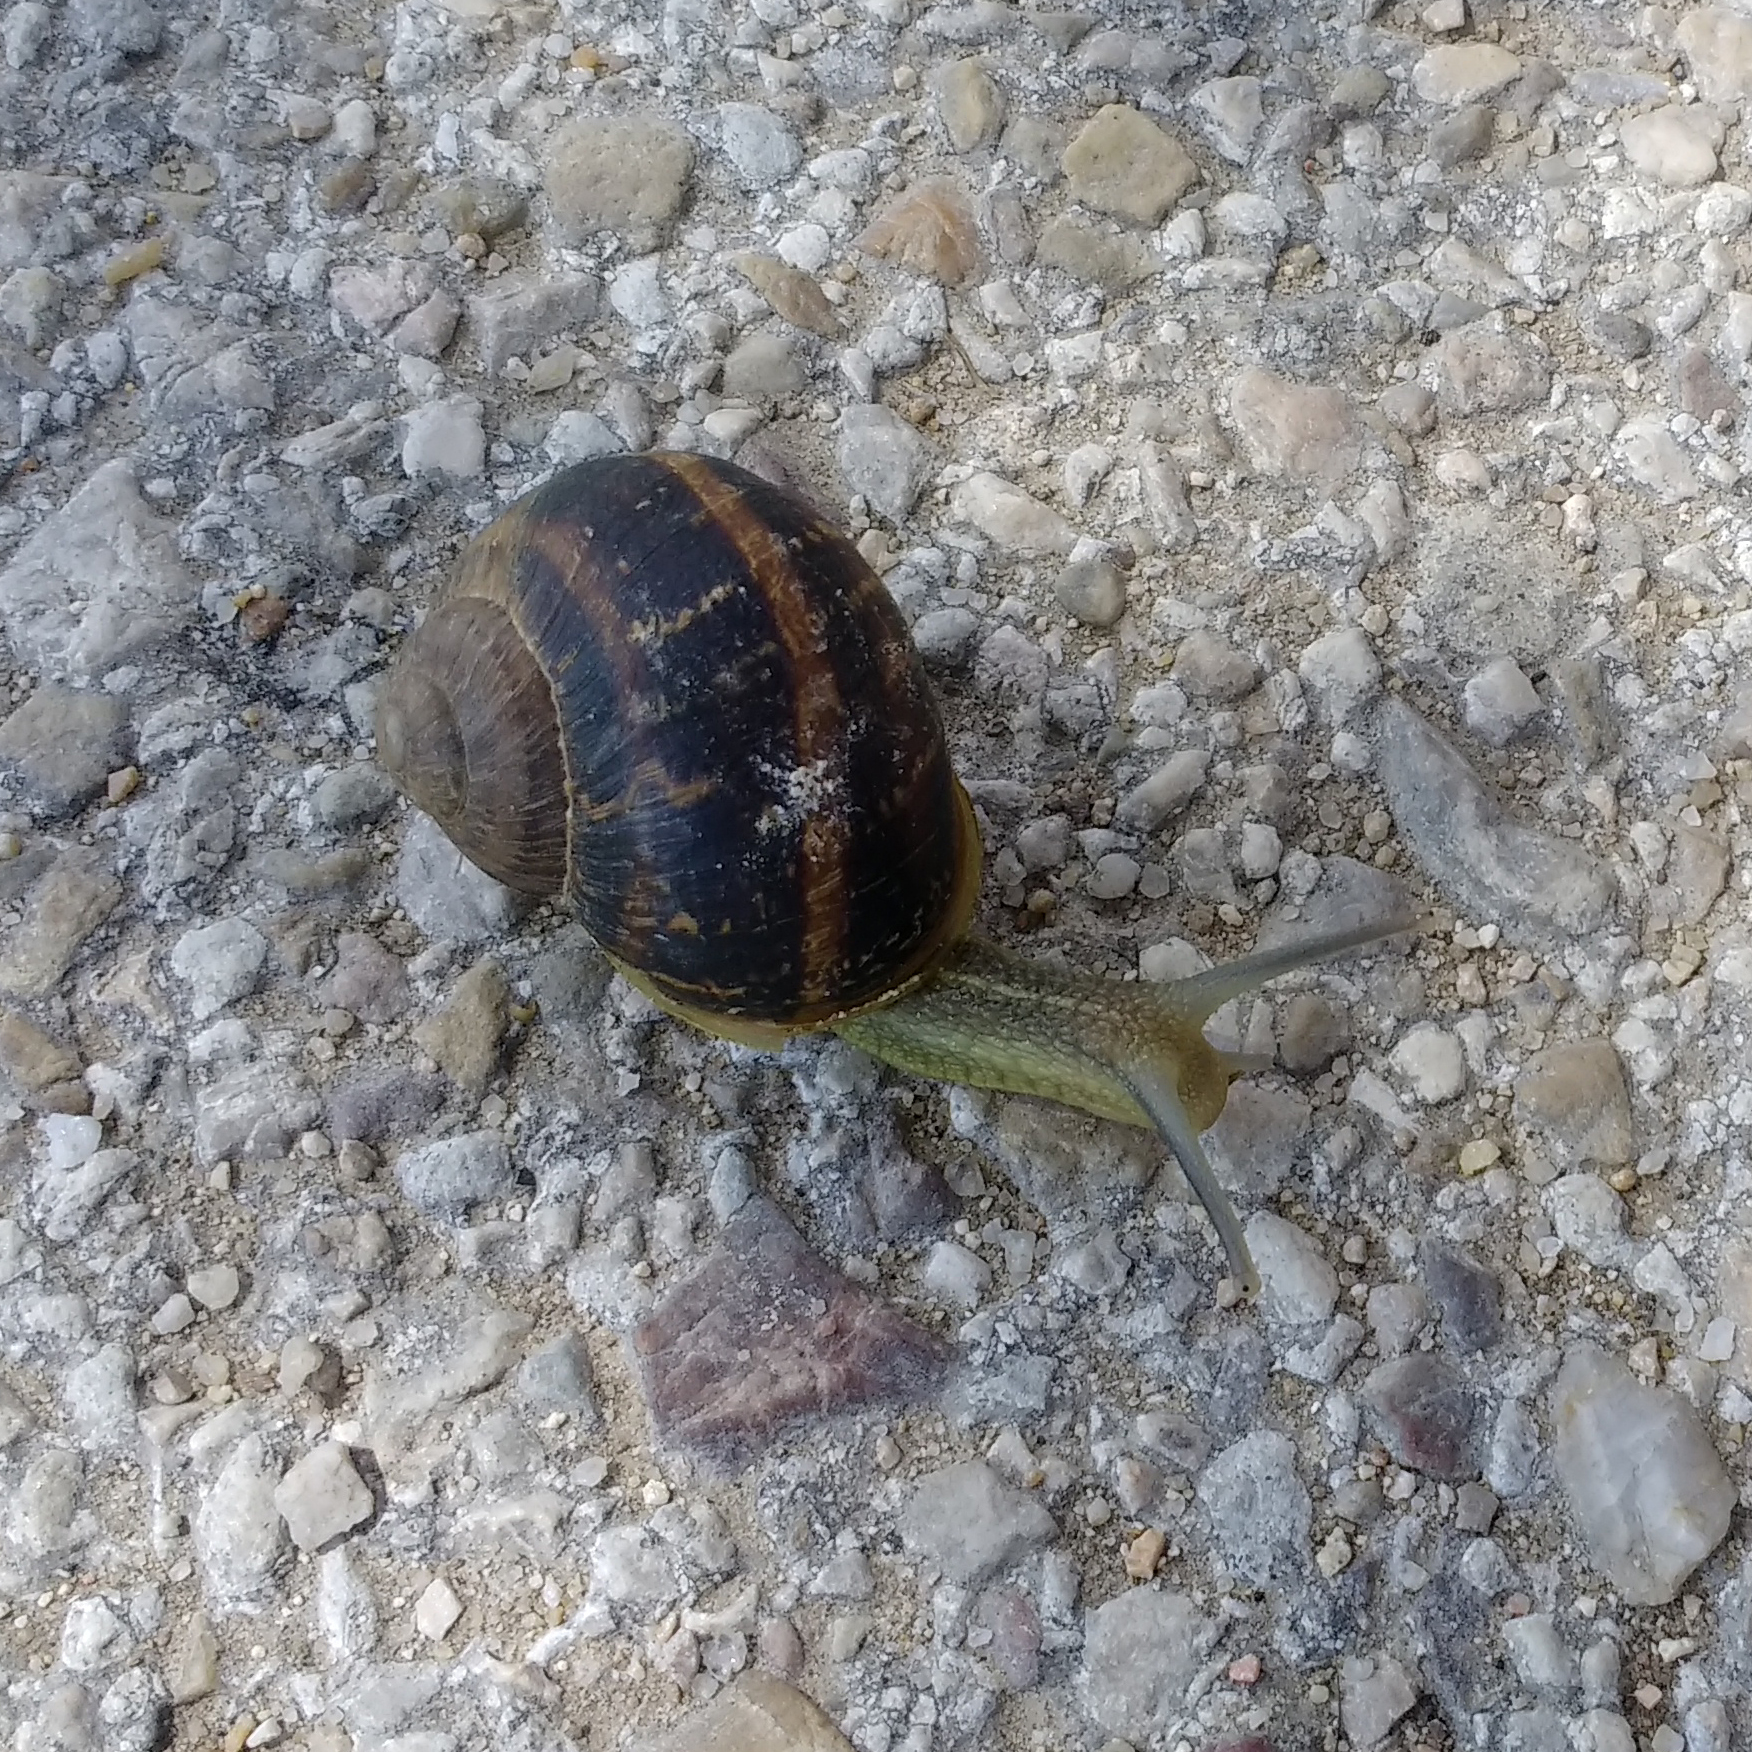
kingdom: Animalia
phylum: Mollusca
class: Gastropoda
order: Stylommatophora
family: Helicidae
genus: Cornu
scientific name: Cornu aspersum
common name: Brown garden snail
